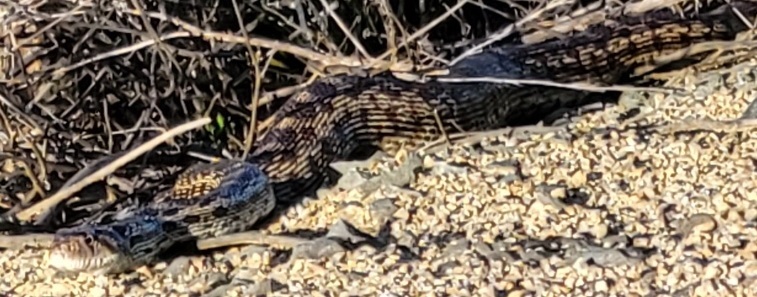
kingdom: Animalia
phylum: Chordata
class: Squamata
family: Colubridae
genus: Pituophis
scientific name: Pituophis catenifer
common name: Gopher snake
